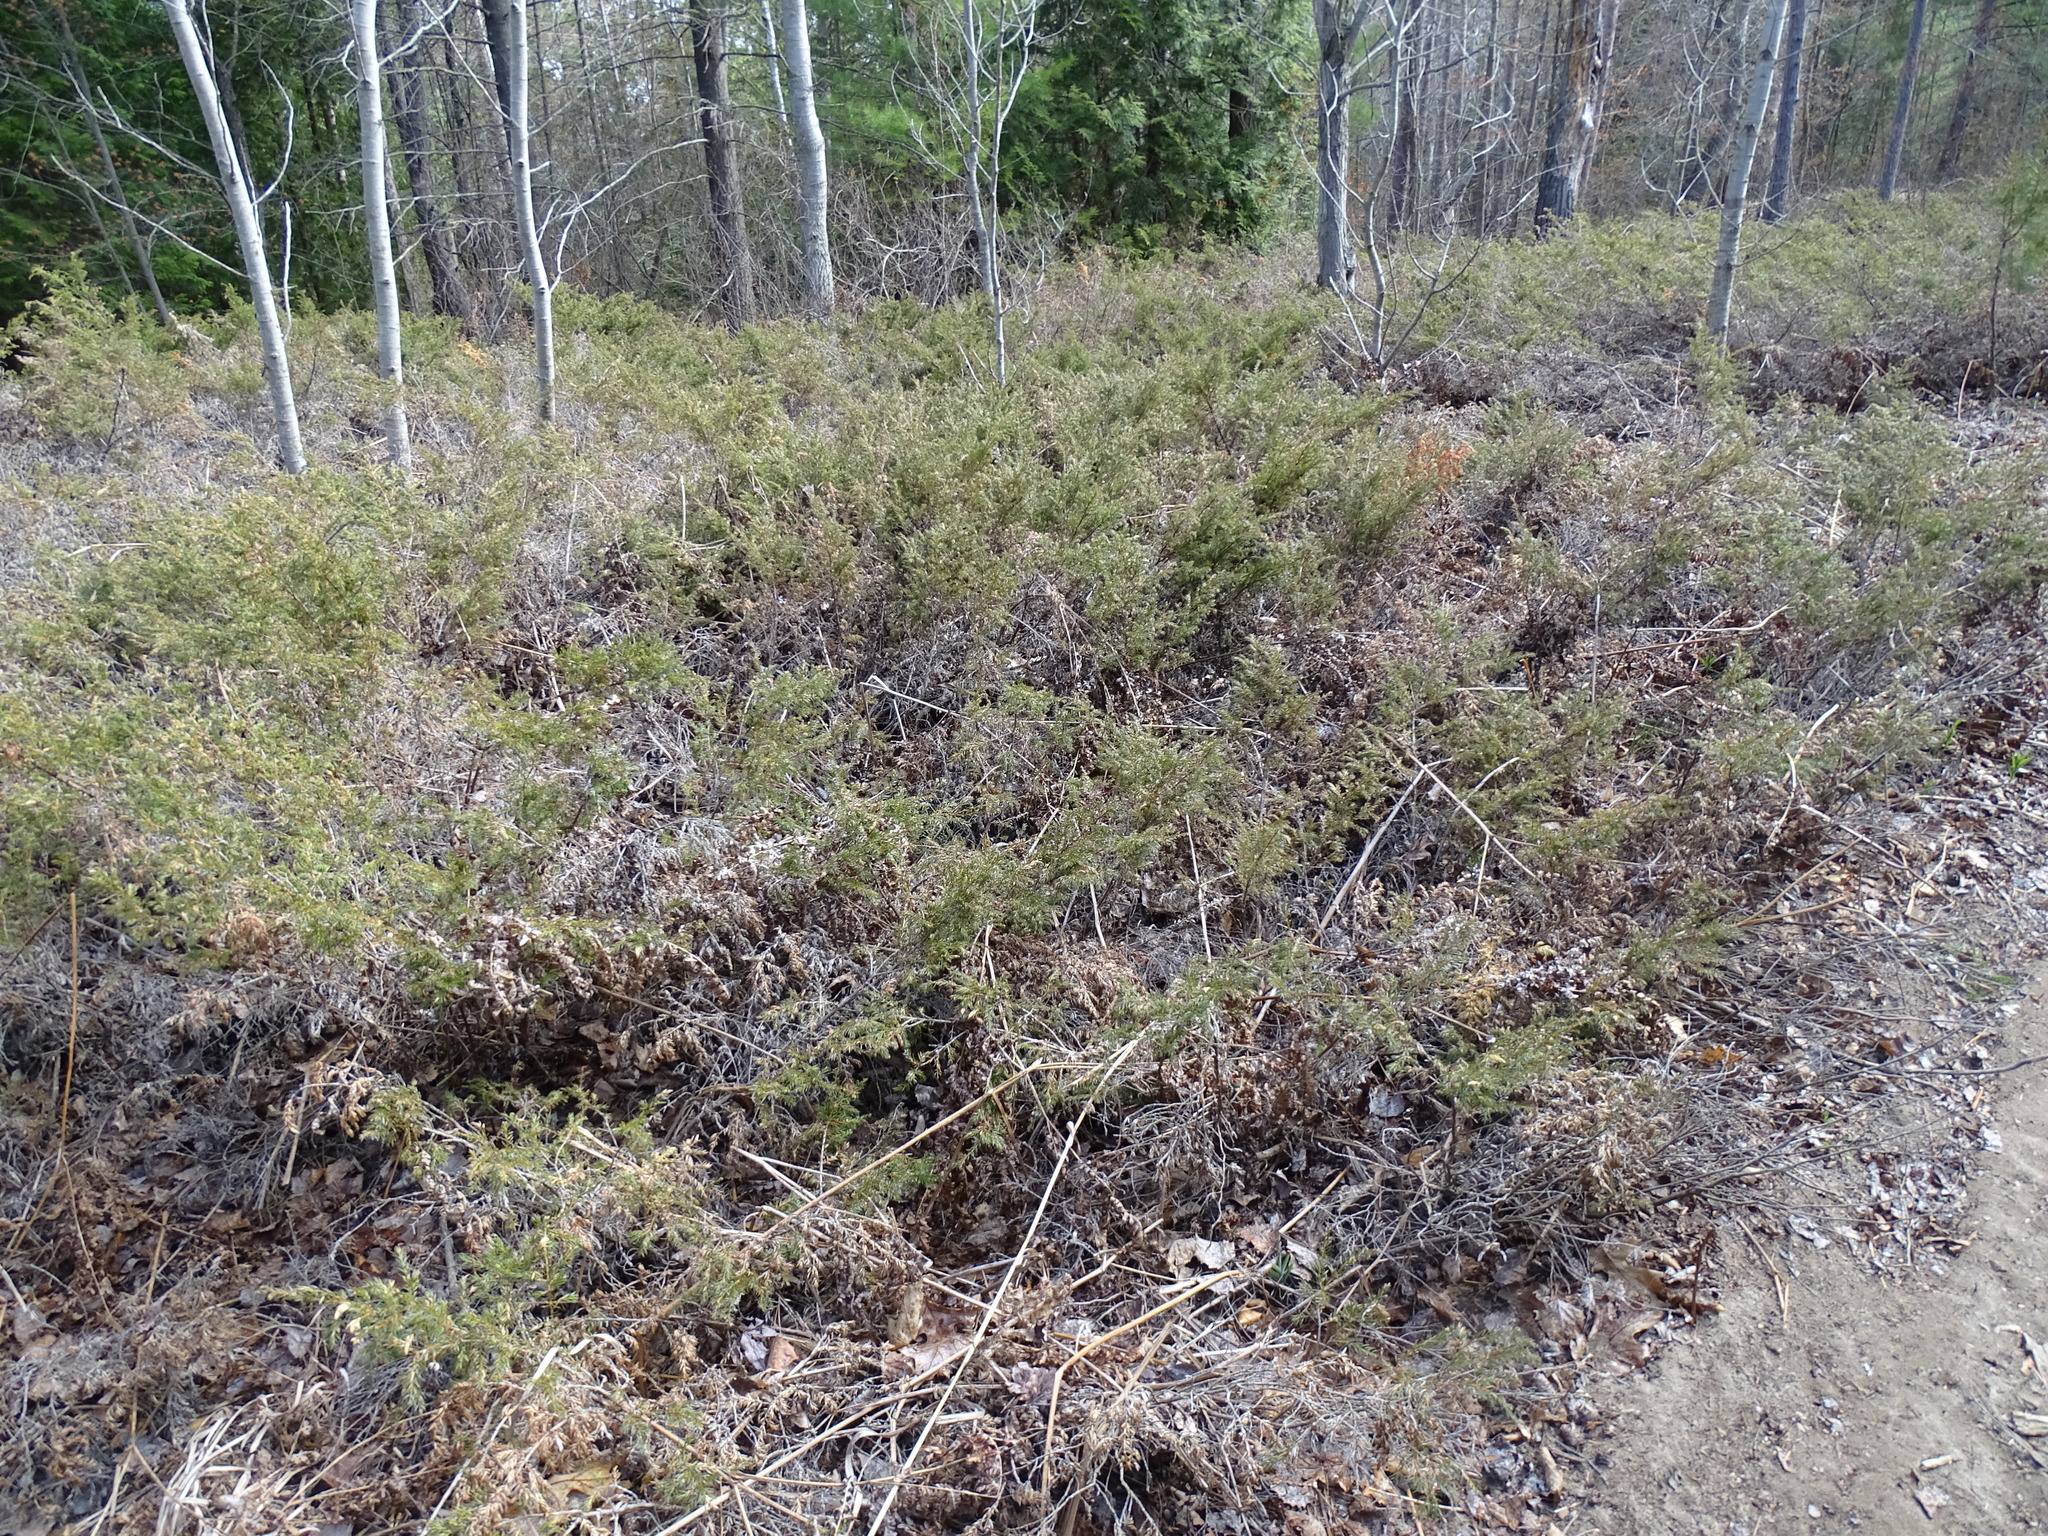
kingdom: Plantae
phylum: Tracheophyta
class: Pinopsida
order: Pinales
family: Cupressaceae
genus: Juniperus
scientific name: Juniperus communis
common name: Common juniper
